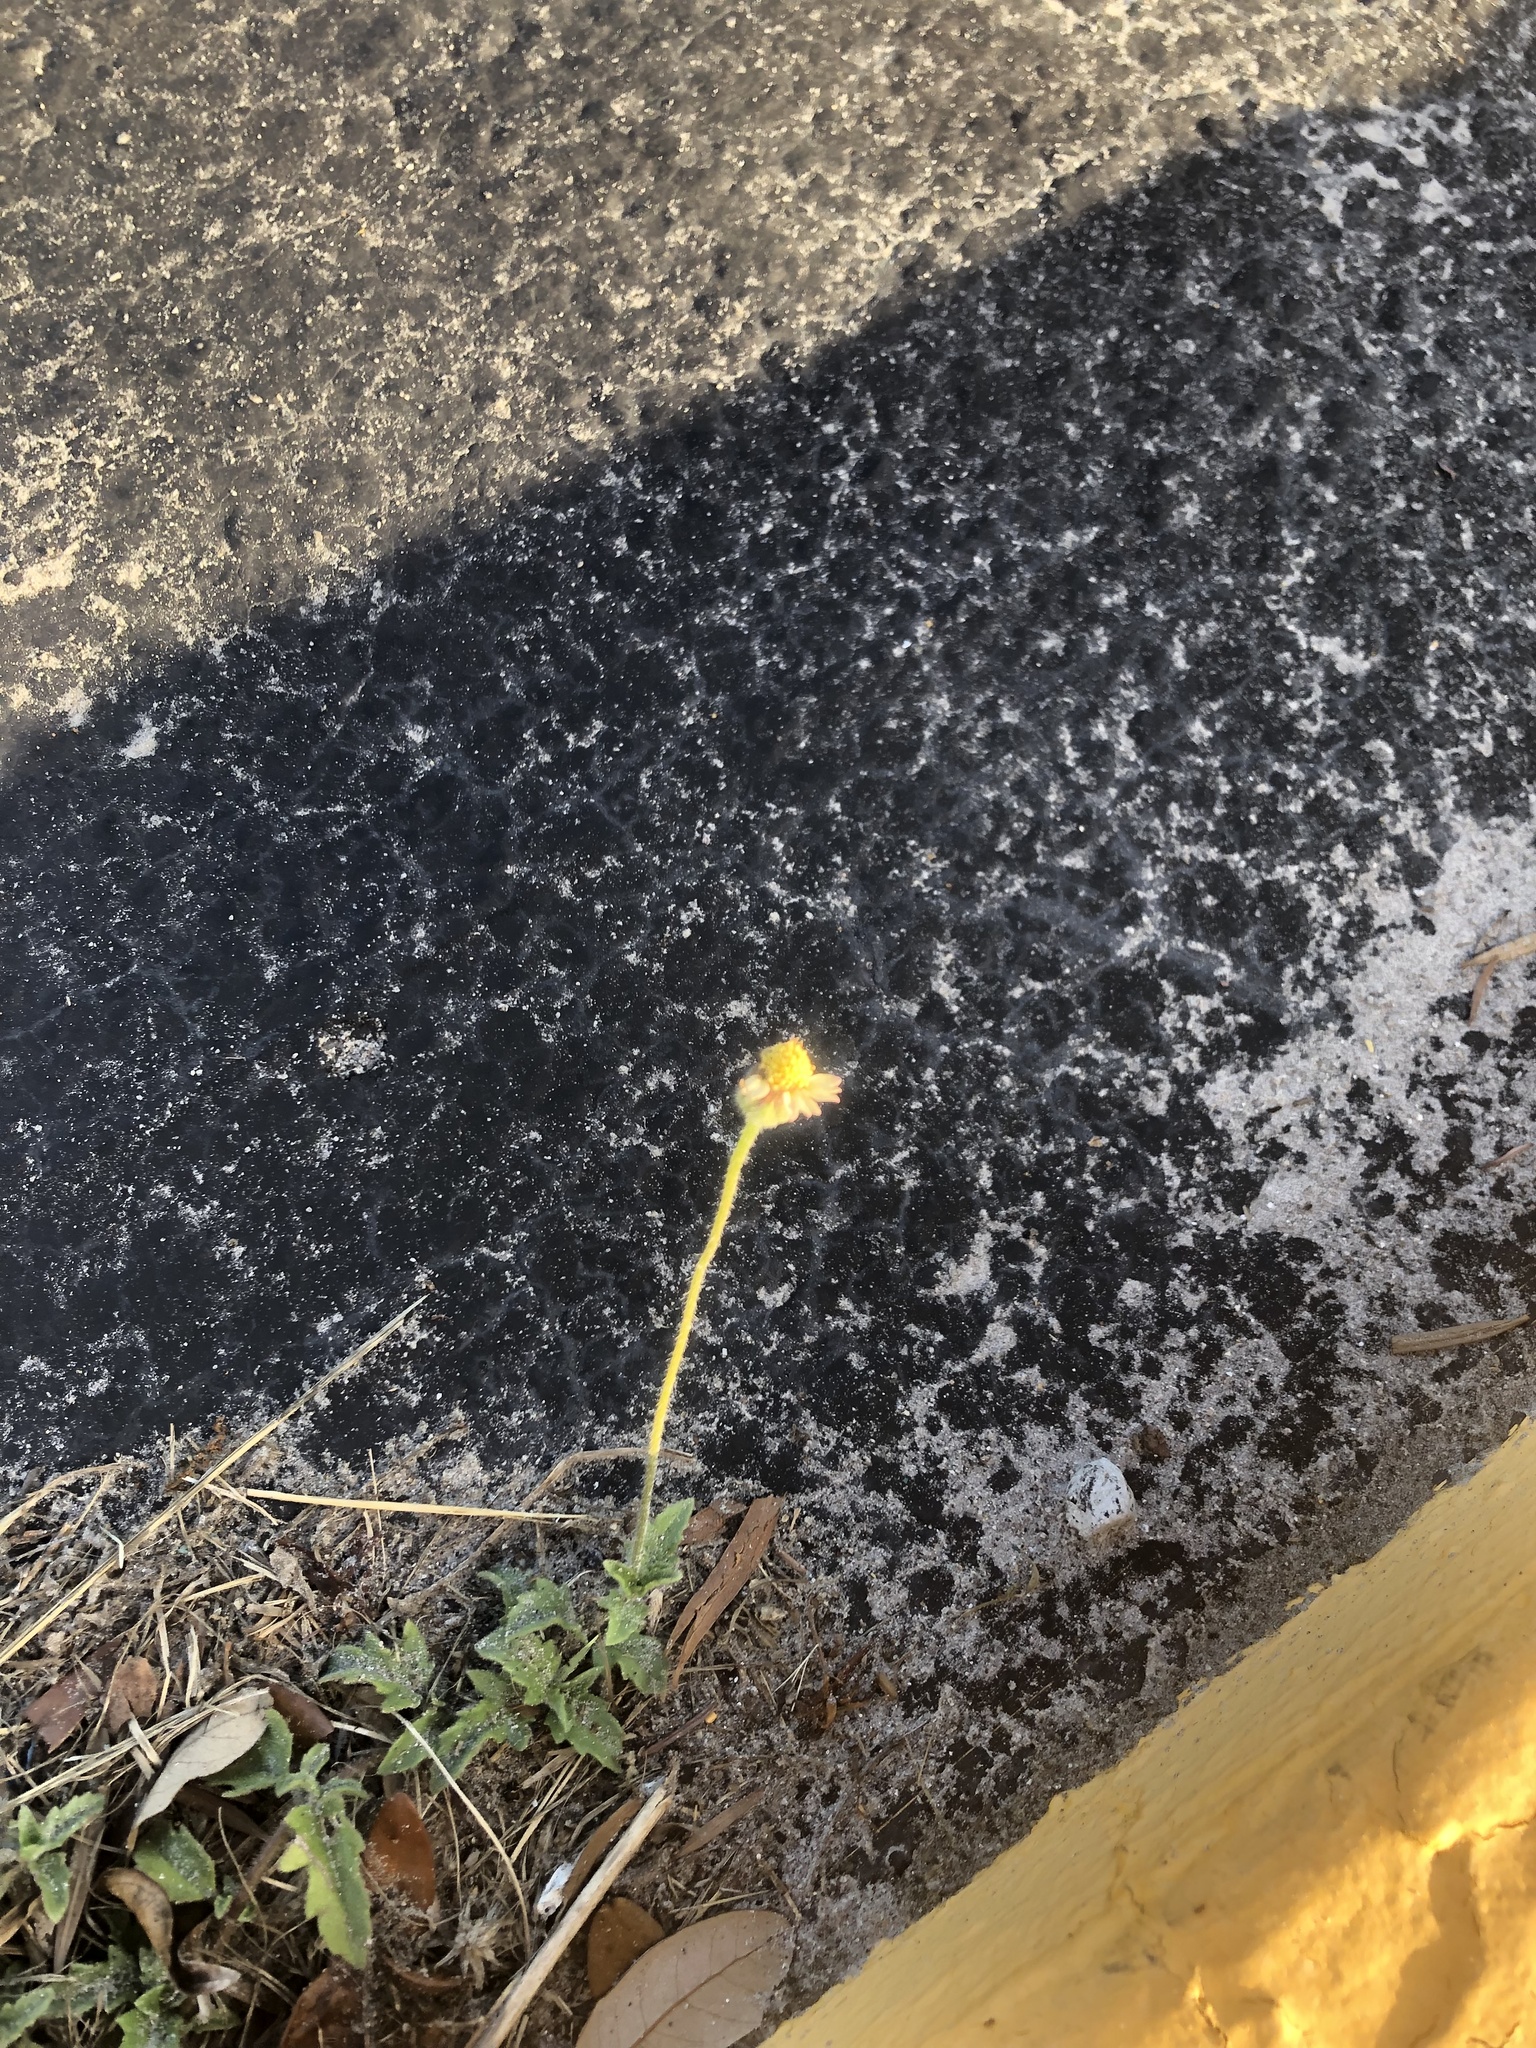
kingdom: Plantae
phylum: Tracheophyta
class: Magnoliopsida
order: Asterales
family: Asteraceae
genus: Tridax
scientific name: Tridax procumbens
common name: Coatbuttons
